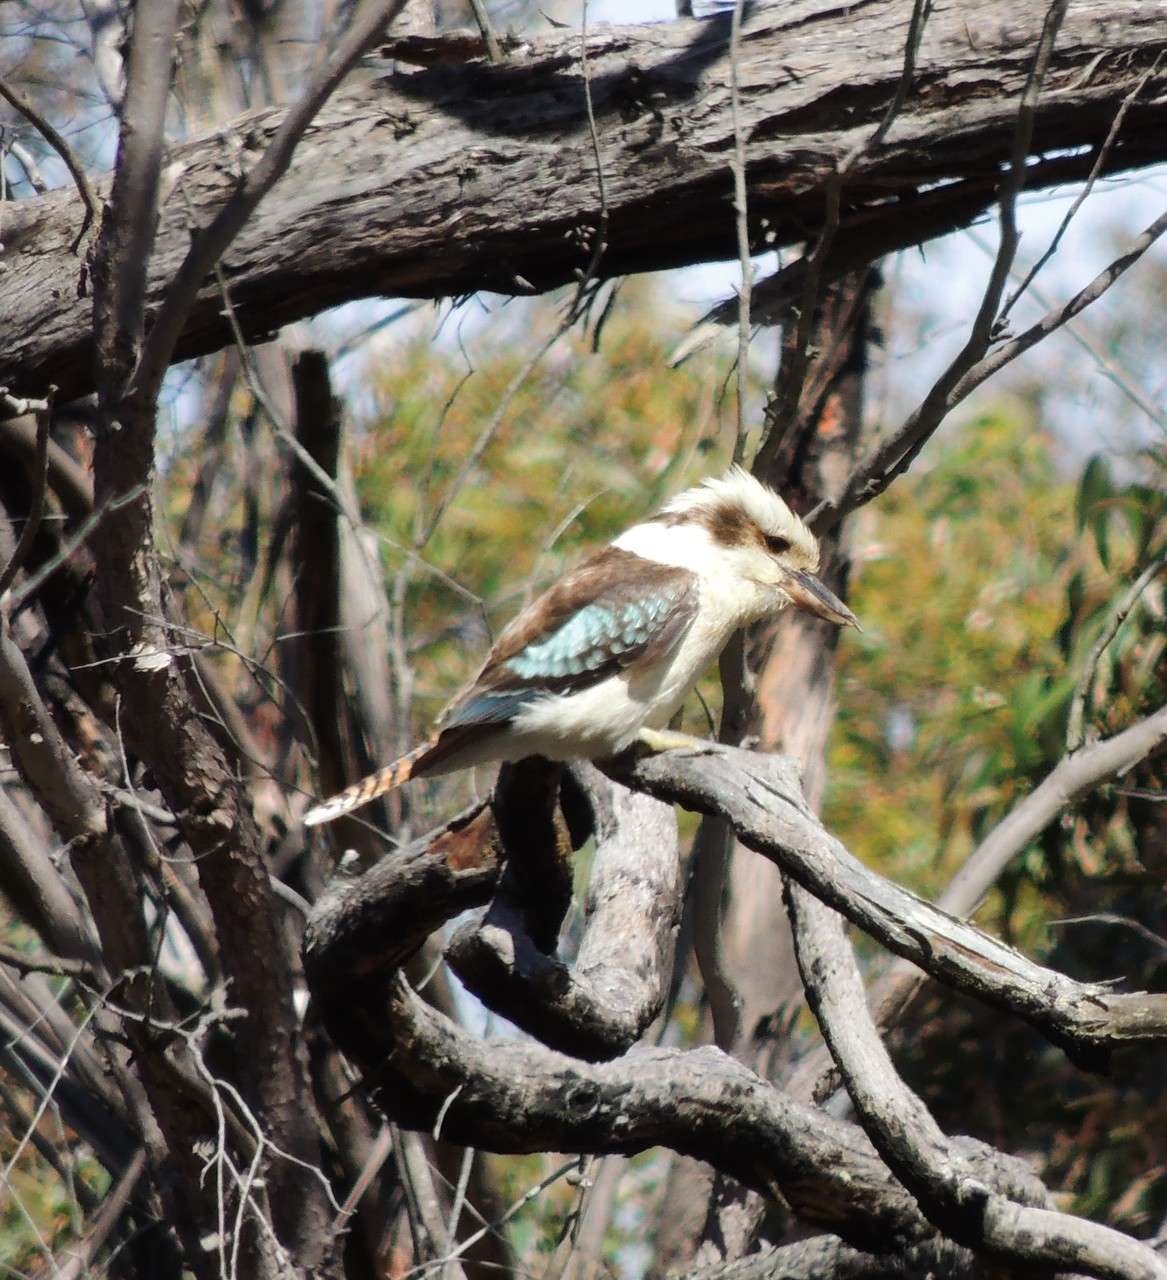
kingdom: Animalia
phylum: Chordata
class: Aves
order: Coraciiformes
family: Alcedinidae
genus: Dacelo
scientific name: Dacelo novaeguineae
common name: Laughing kookaburra
